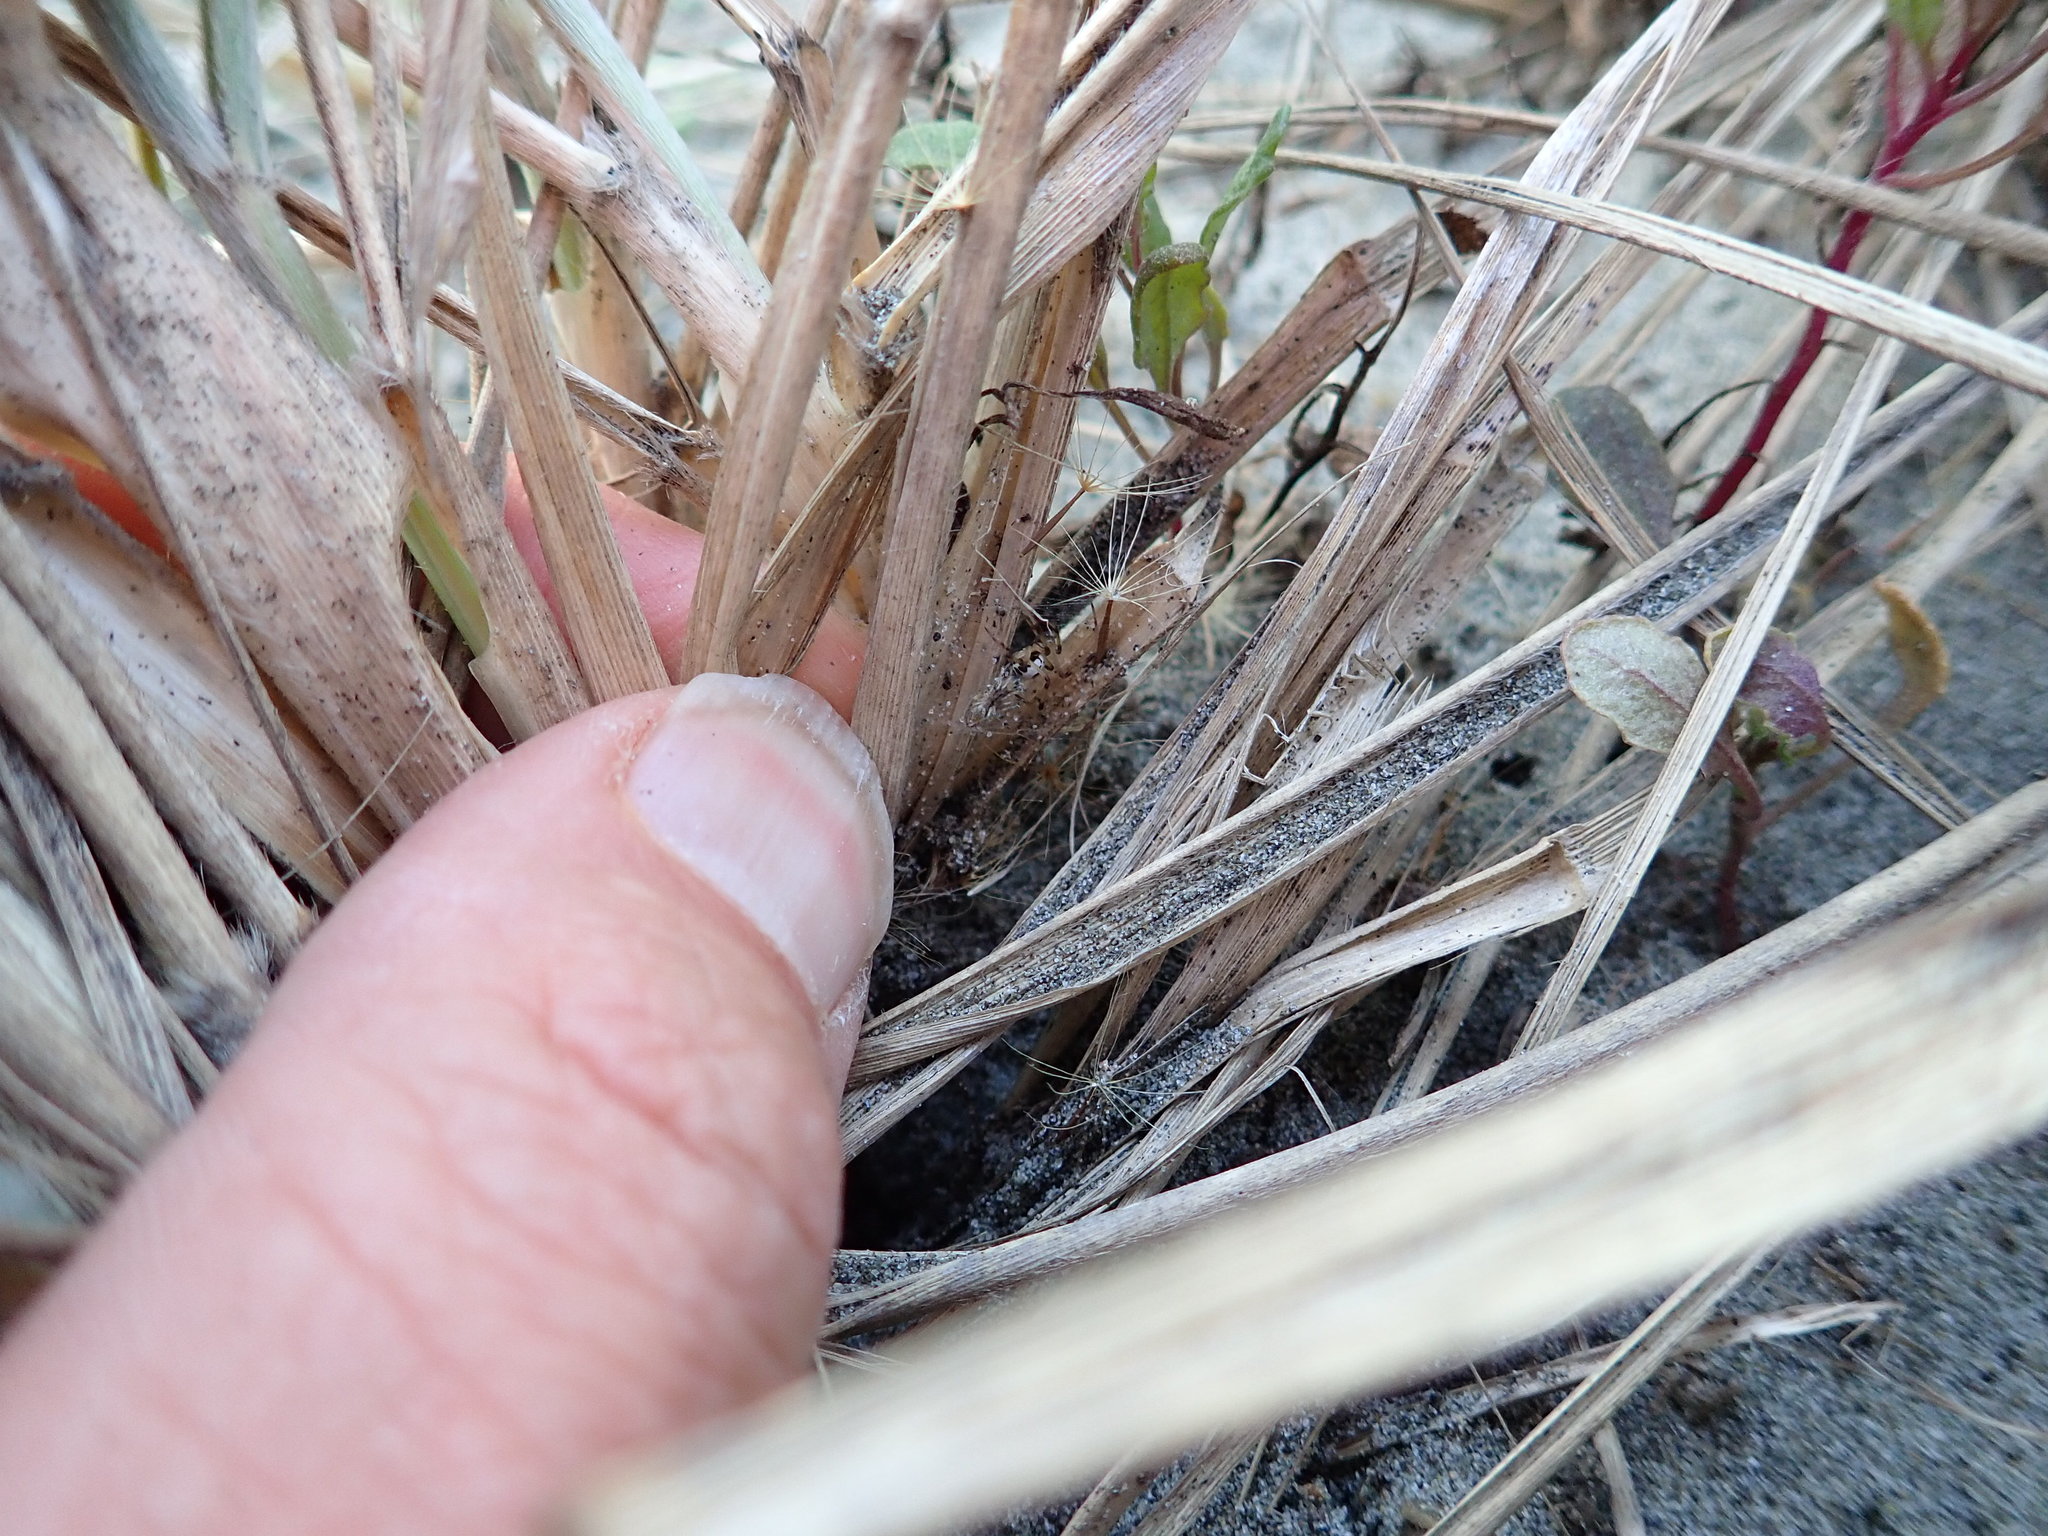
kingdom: Animalia
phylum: Arthropoda
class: Arachnida
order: Araneae
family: Theridiidae
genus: Latrodectus
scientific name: Latrodectus katipo
